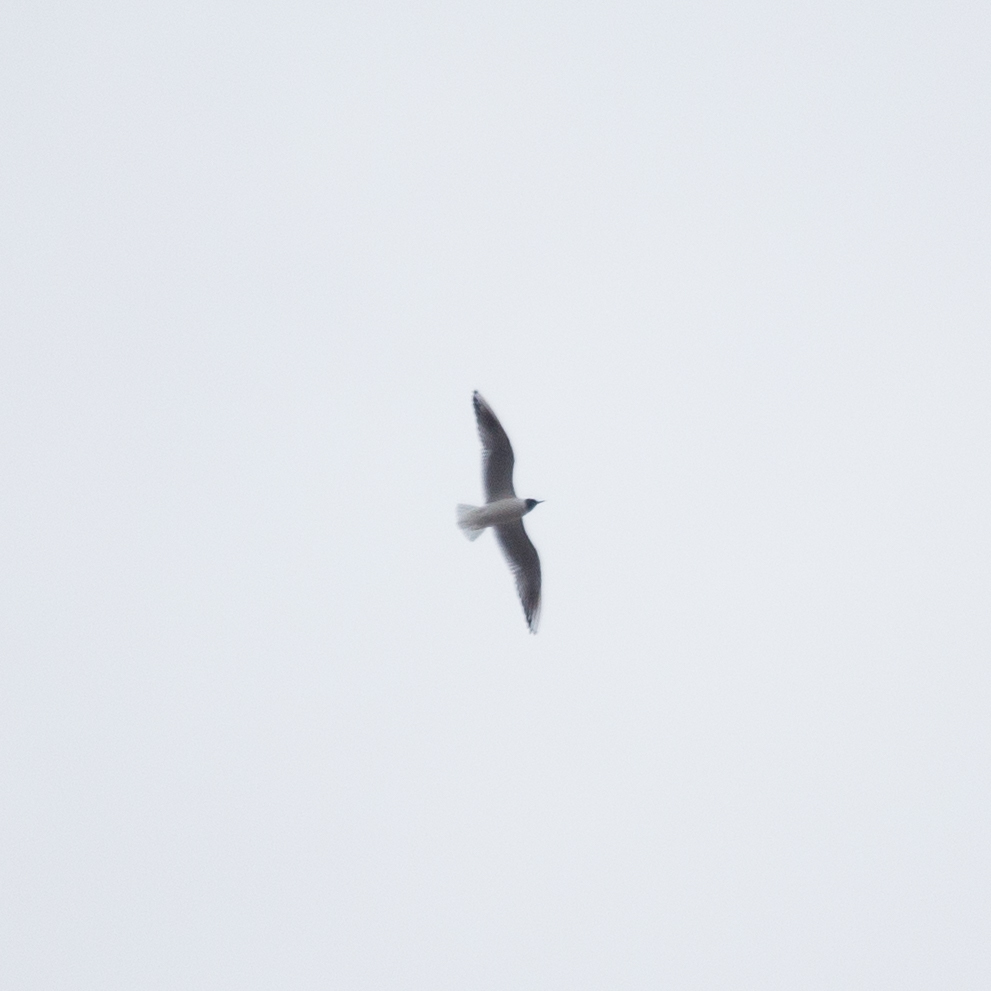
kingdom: Animalia
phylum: Chordata
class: Aves
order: Charadriiformes
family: Laridae
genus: Chroicocephalus
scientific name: Chroicocephalus ridibundus
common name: Black-headed gull
